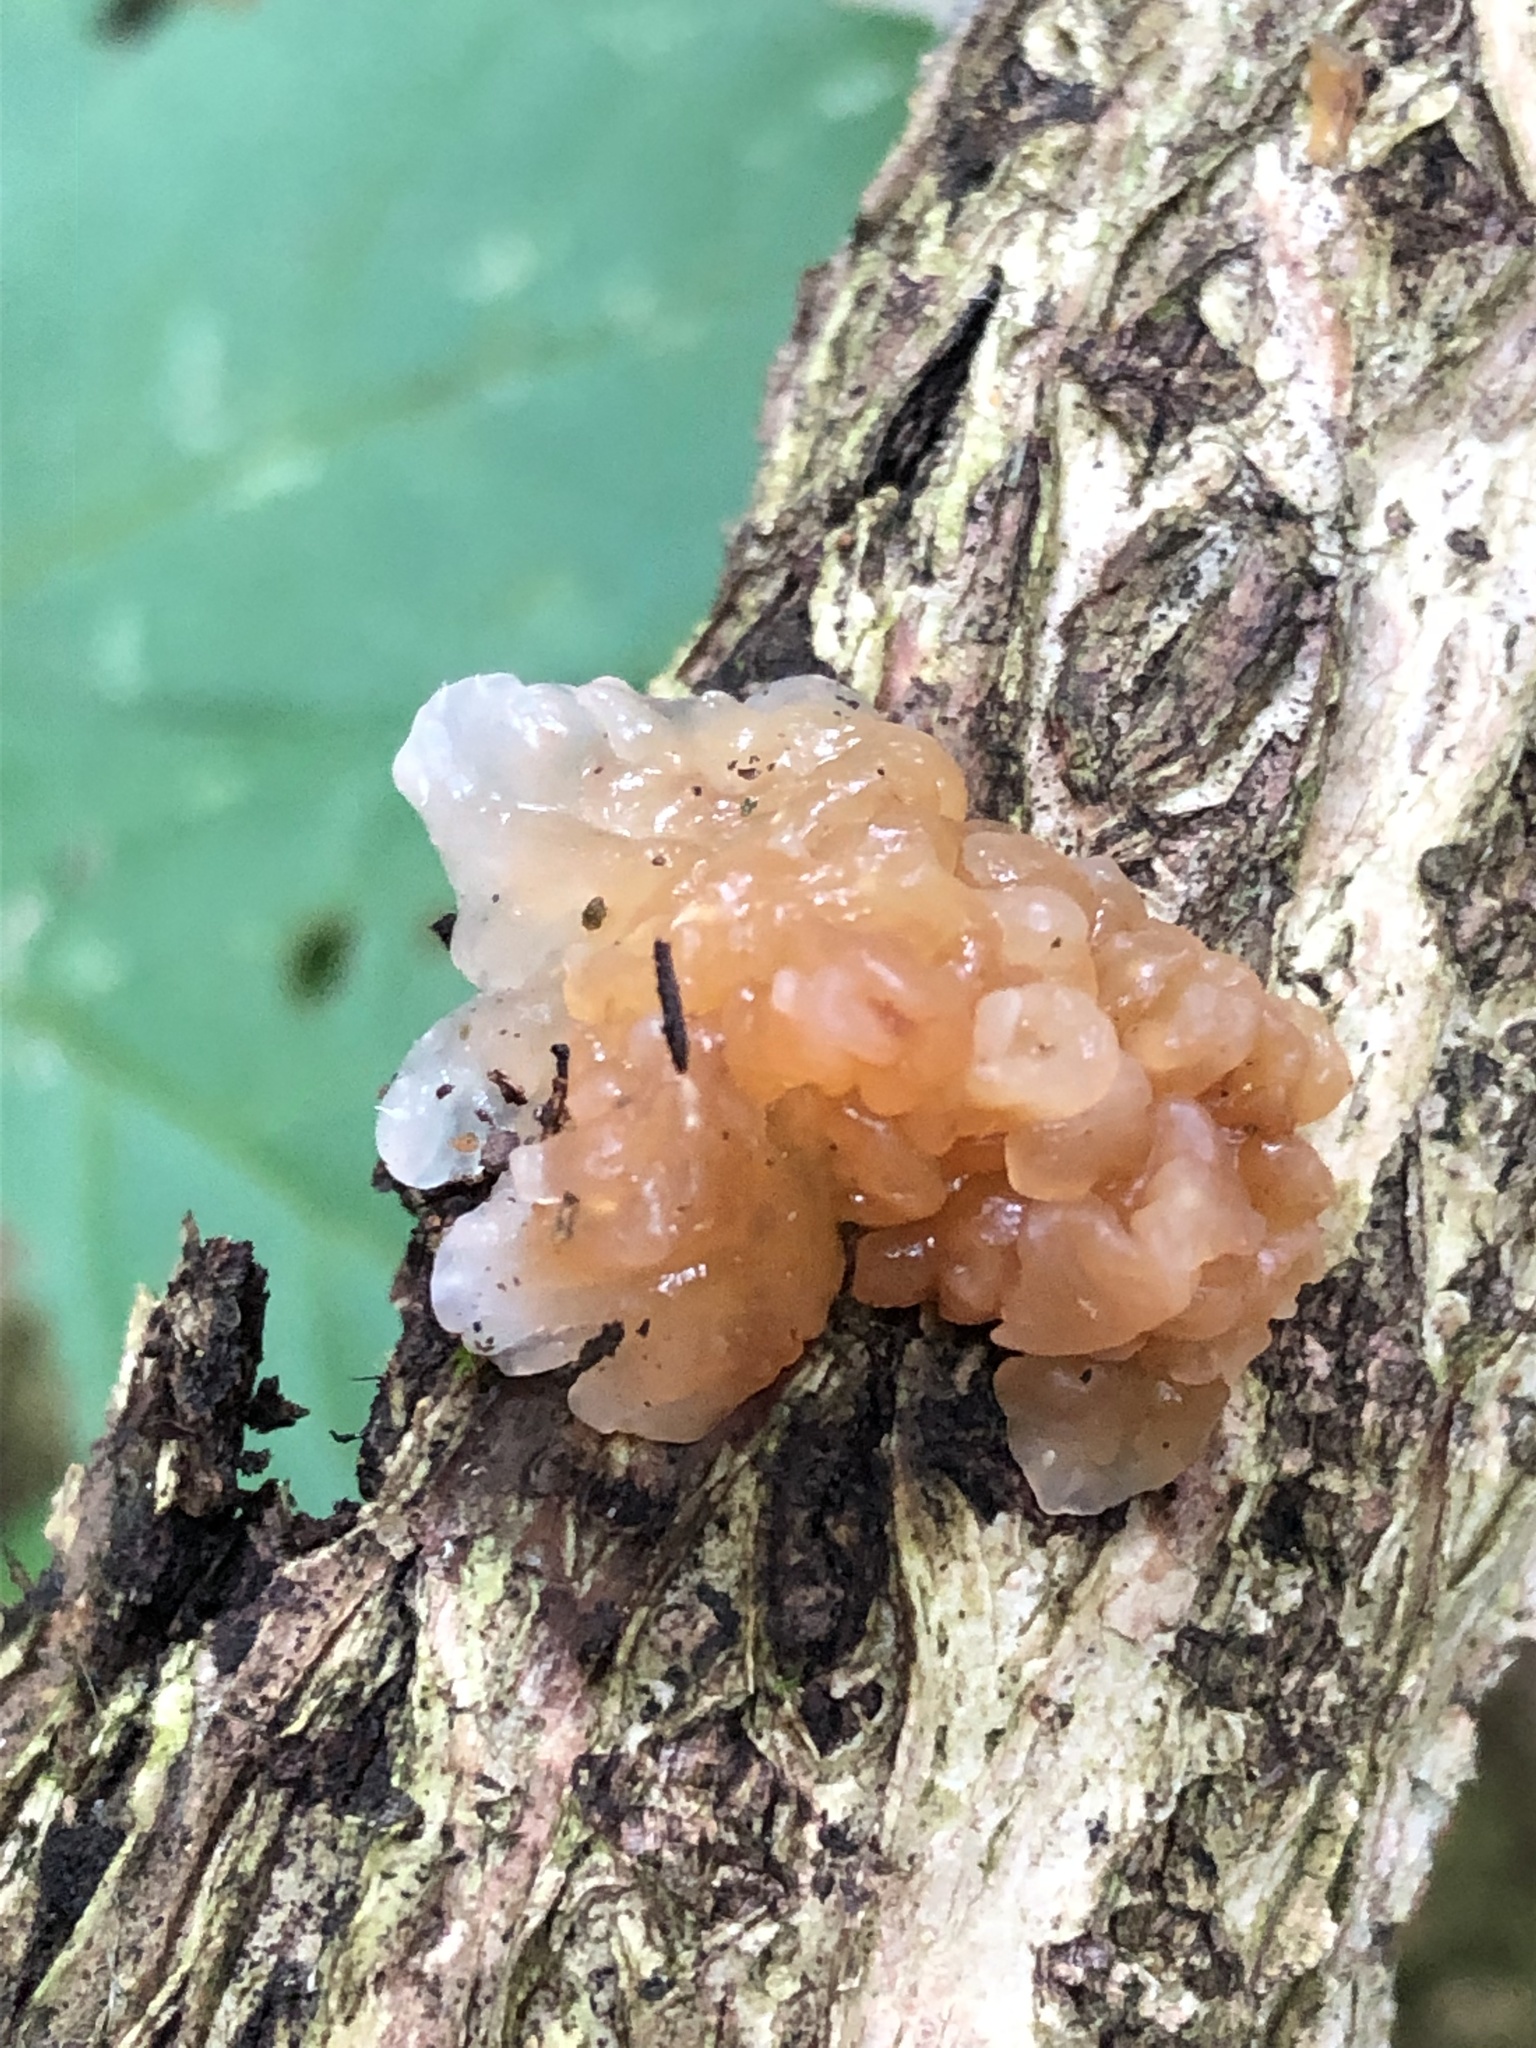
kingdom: Fungi
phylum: Basidiomycota
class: Agaricomycetes
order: Auriculariales
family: Hyaloriaceae
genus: Myxarium
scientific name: Myxarium nucleatum
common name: Crystal brain fungus
